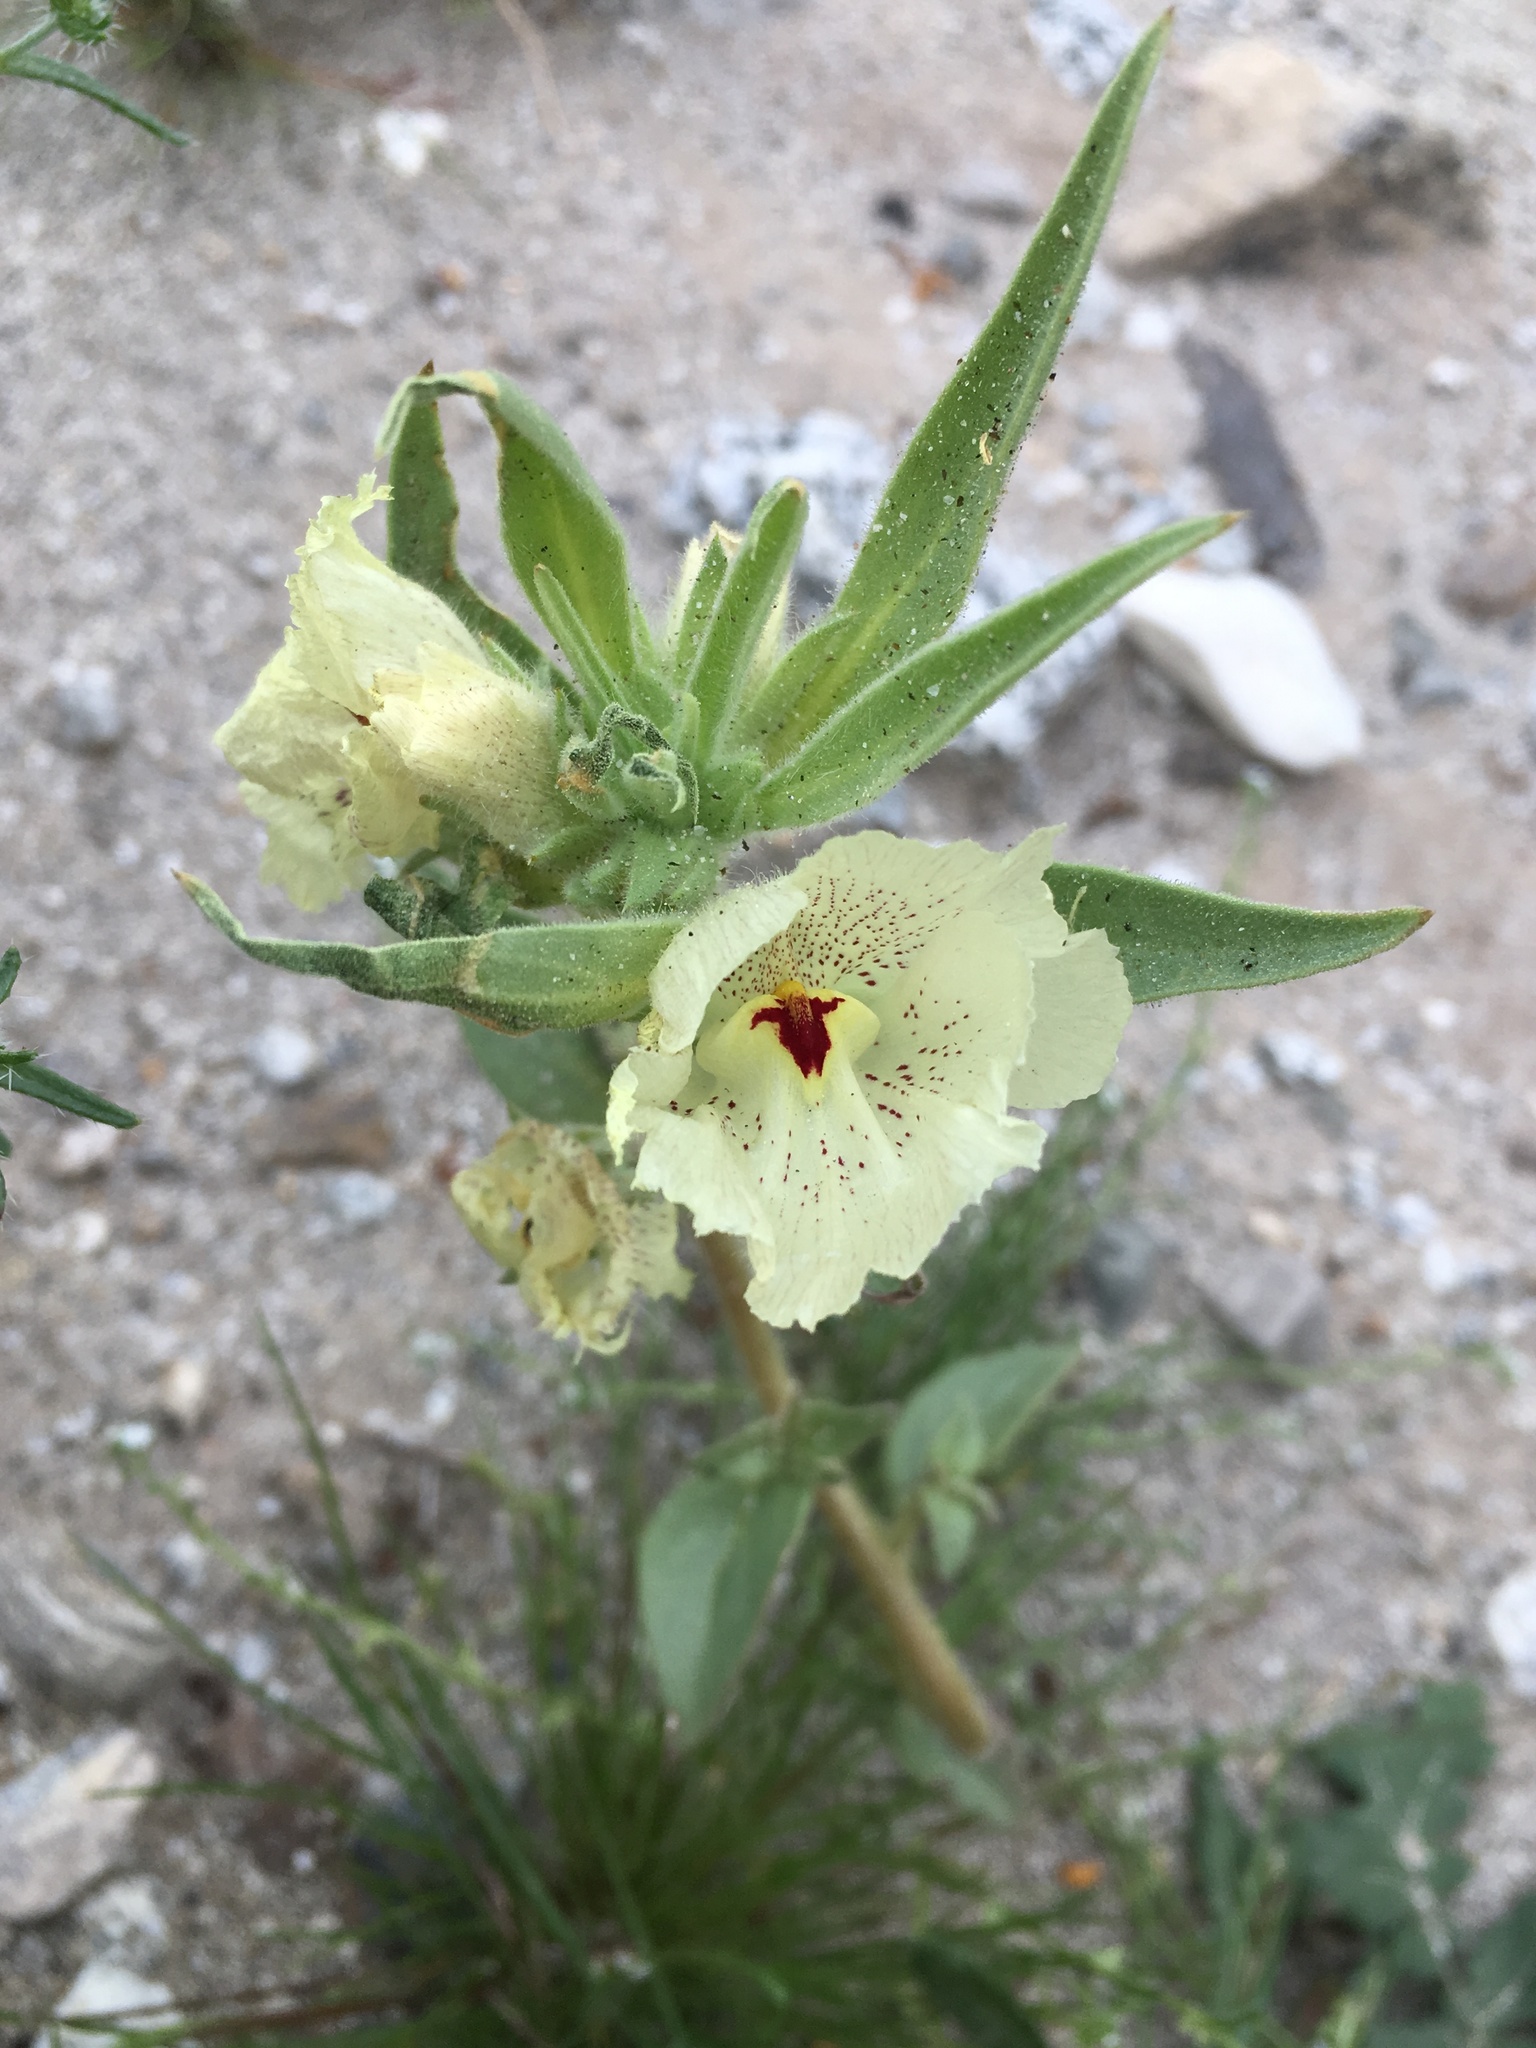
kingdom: Plantae
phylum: Tracheophyta
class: Magnoliopsida
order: Lamiales
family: Plantaginaceae
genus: Mohavea
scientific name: Mohavea confertiflora
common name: Ghost flower
